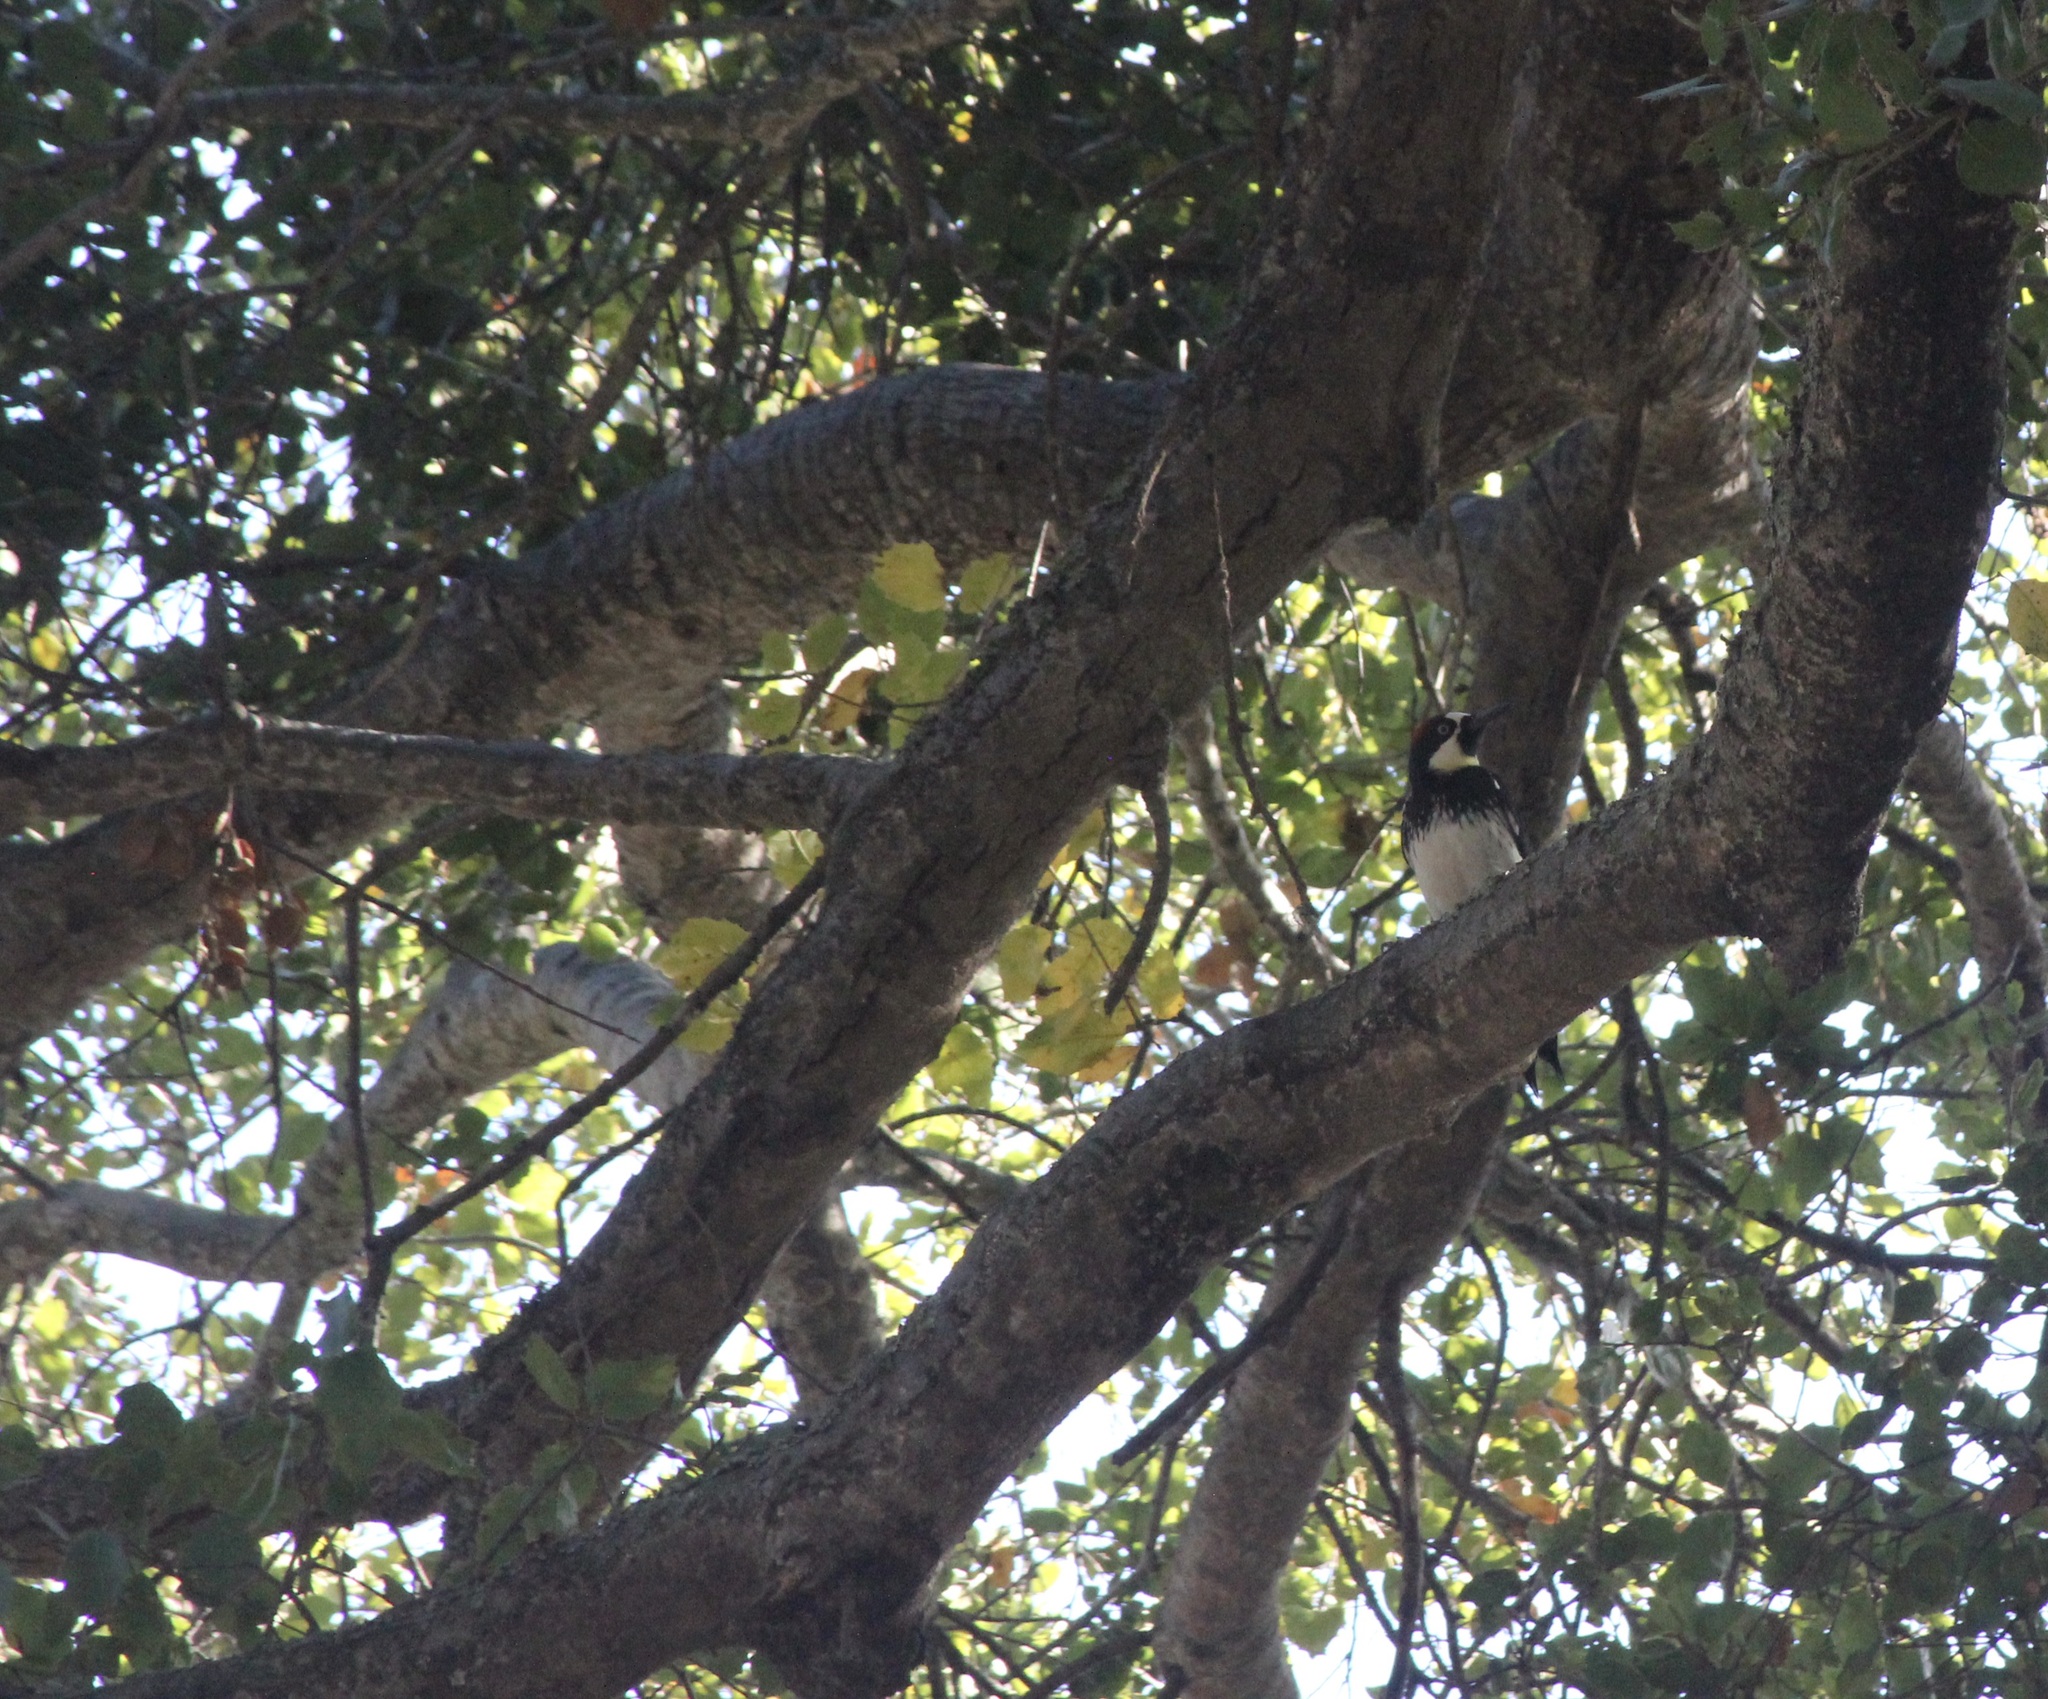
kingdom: Animalia
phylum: Chordata
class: Aves
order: Piciformes
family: Picidae
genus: Melanerpes
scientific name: Melanerpes formicivorus
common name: Acorn woodpecker
